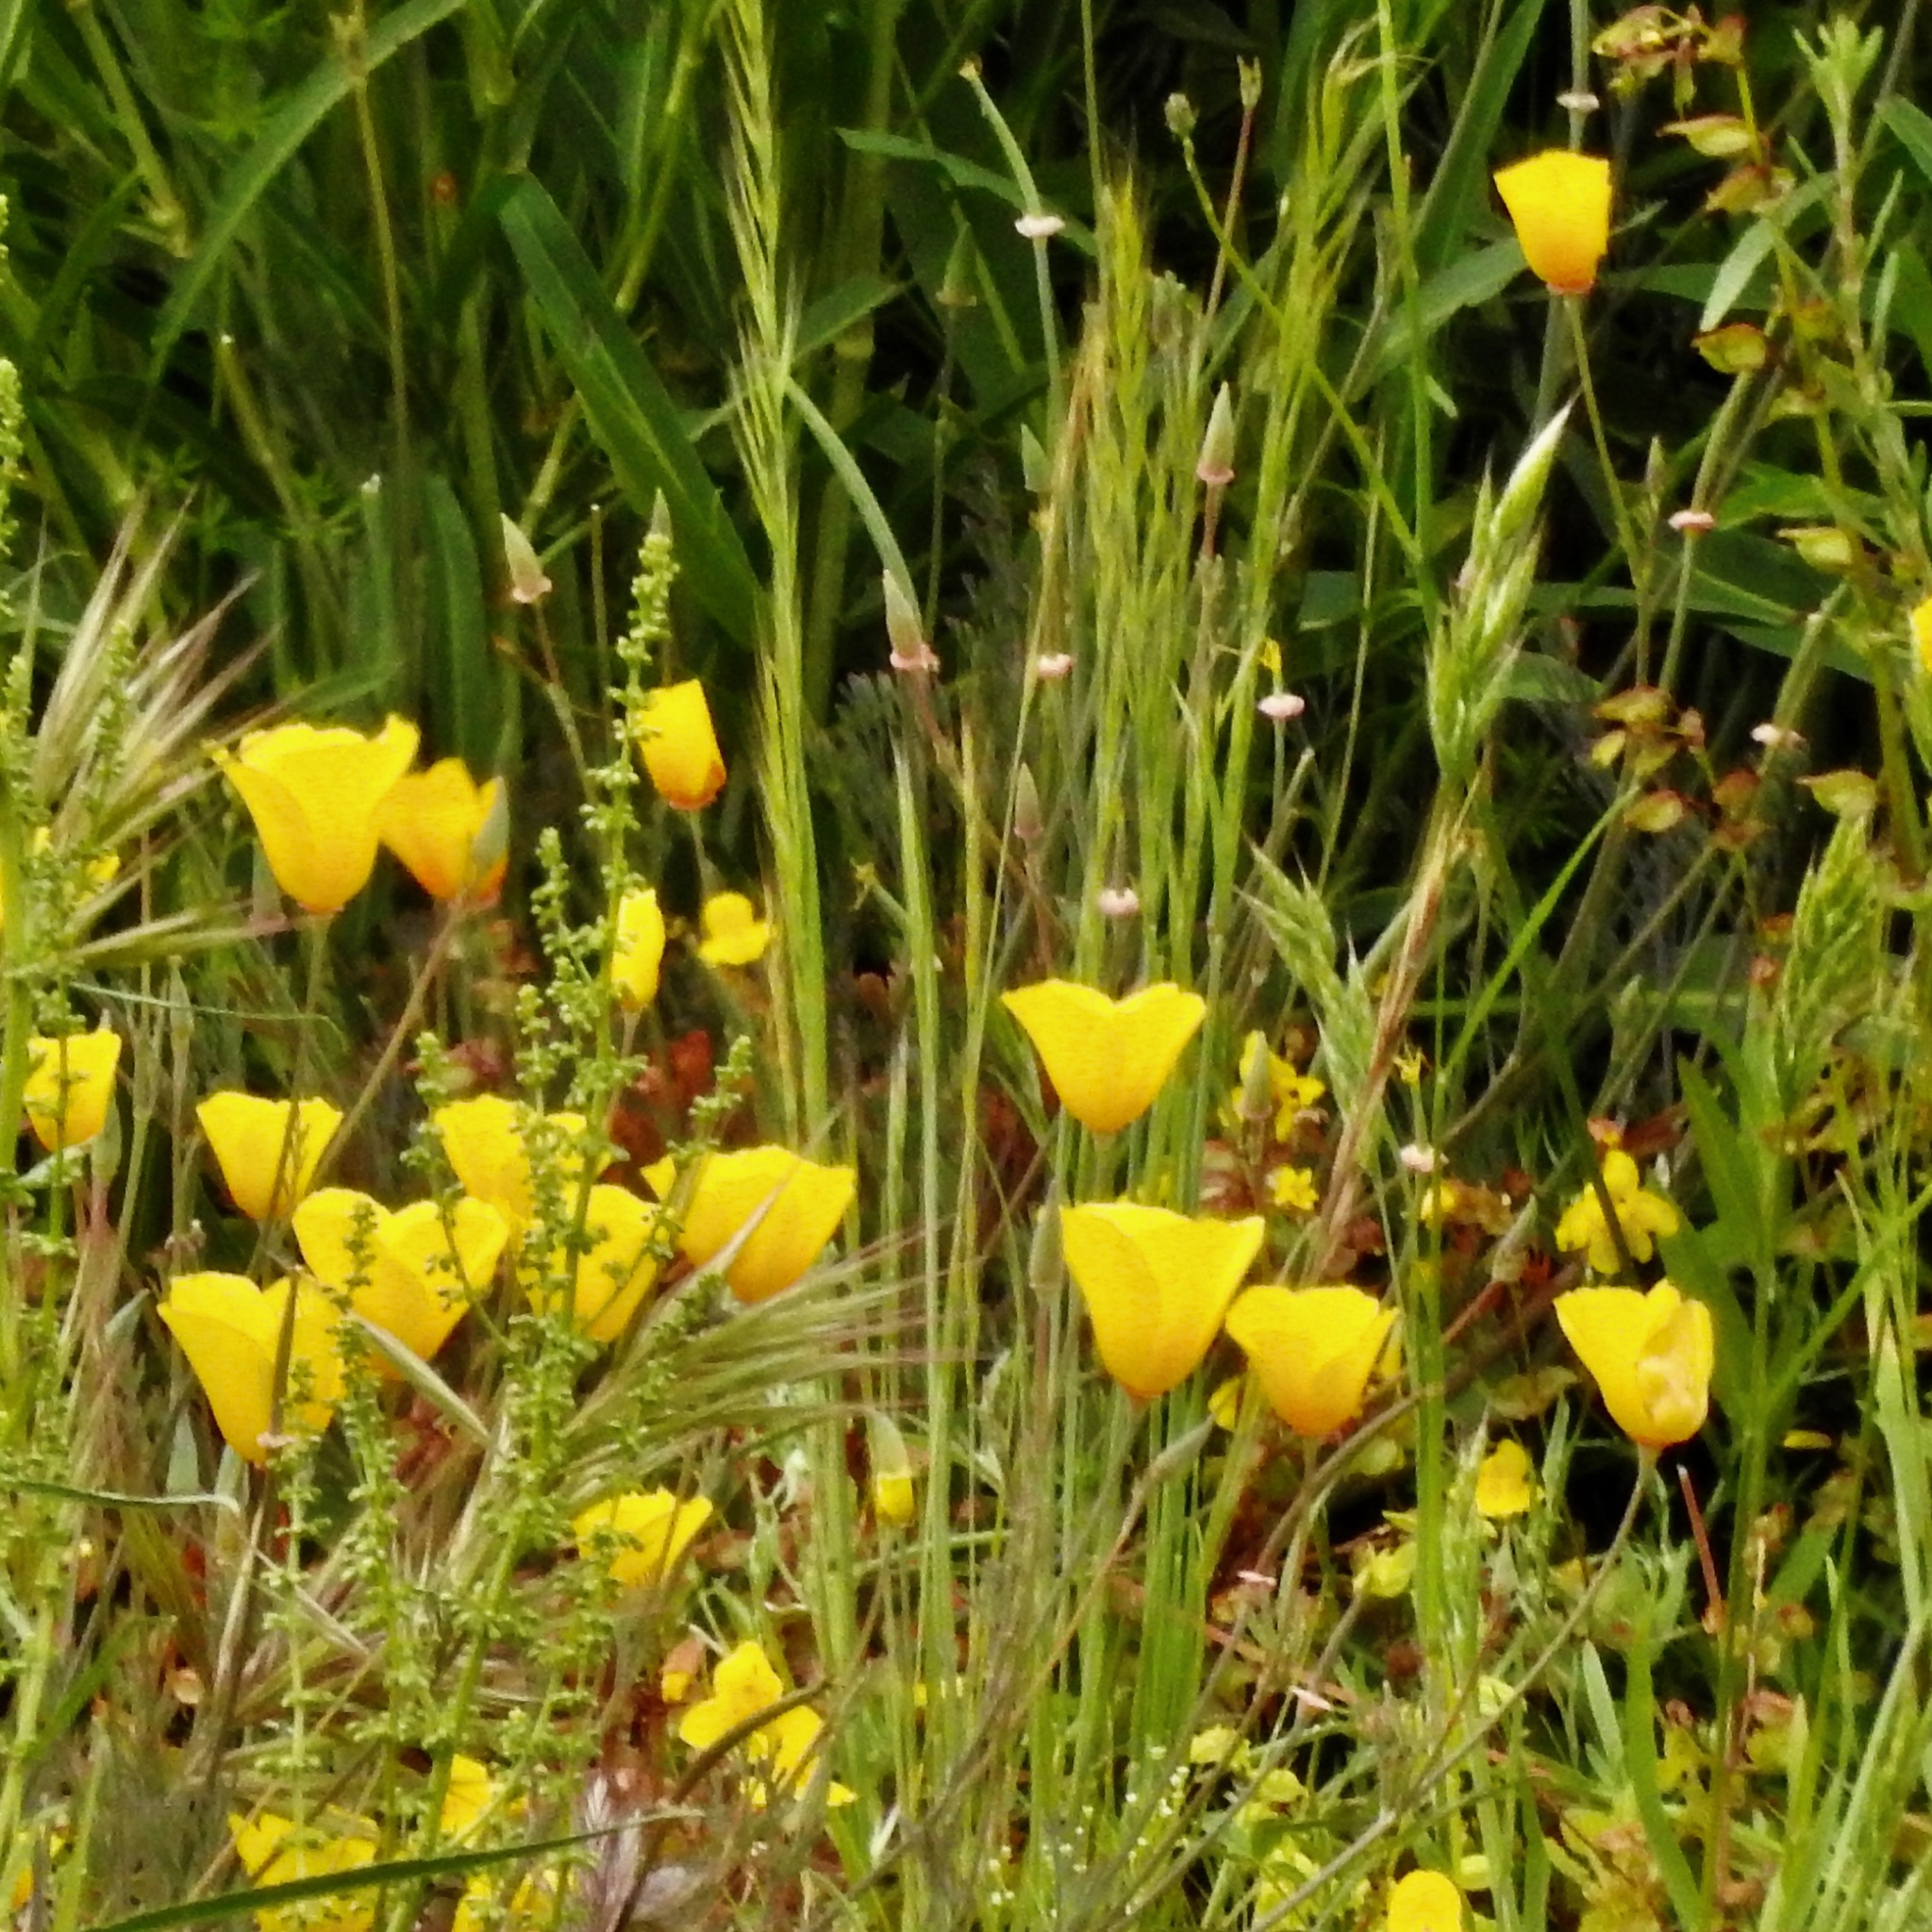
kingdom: Plantae
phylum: Tracheophyta
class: Magnoliopsida
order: Ranunculales
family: Papaveraceae
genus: Eschscholzia
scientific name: Eschscholzia californica
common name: California poppy
